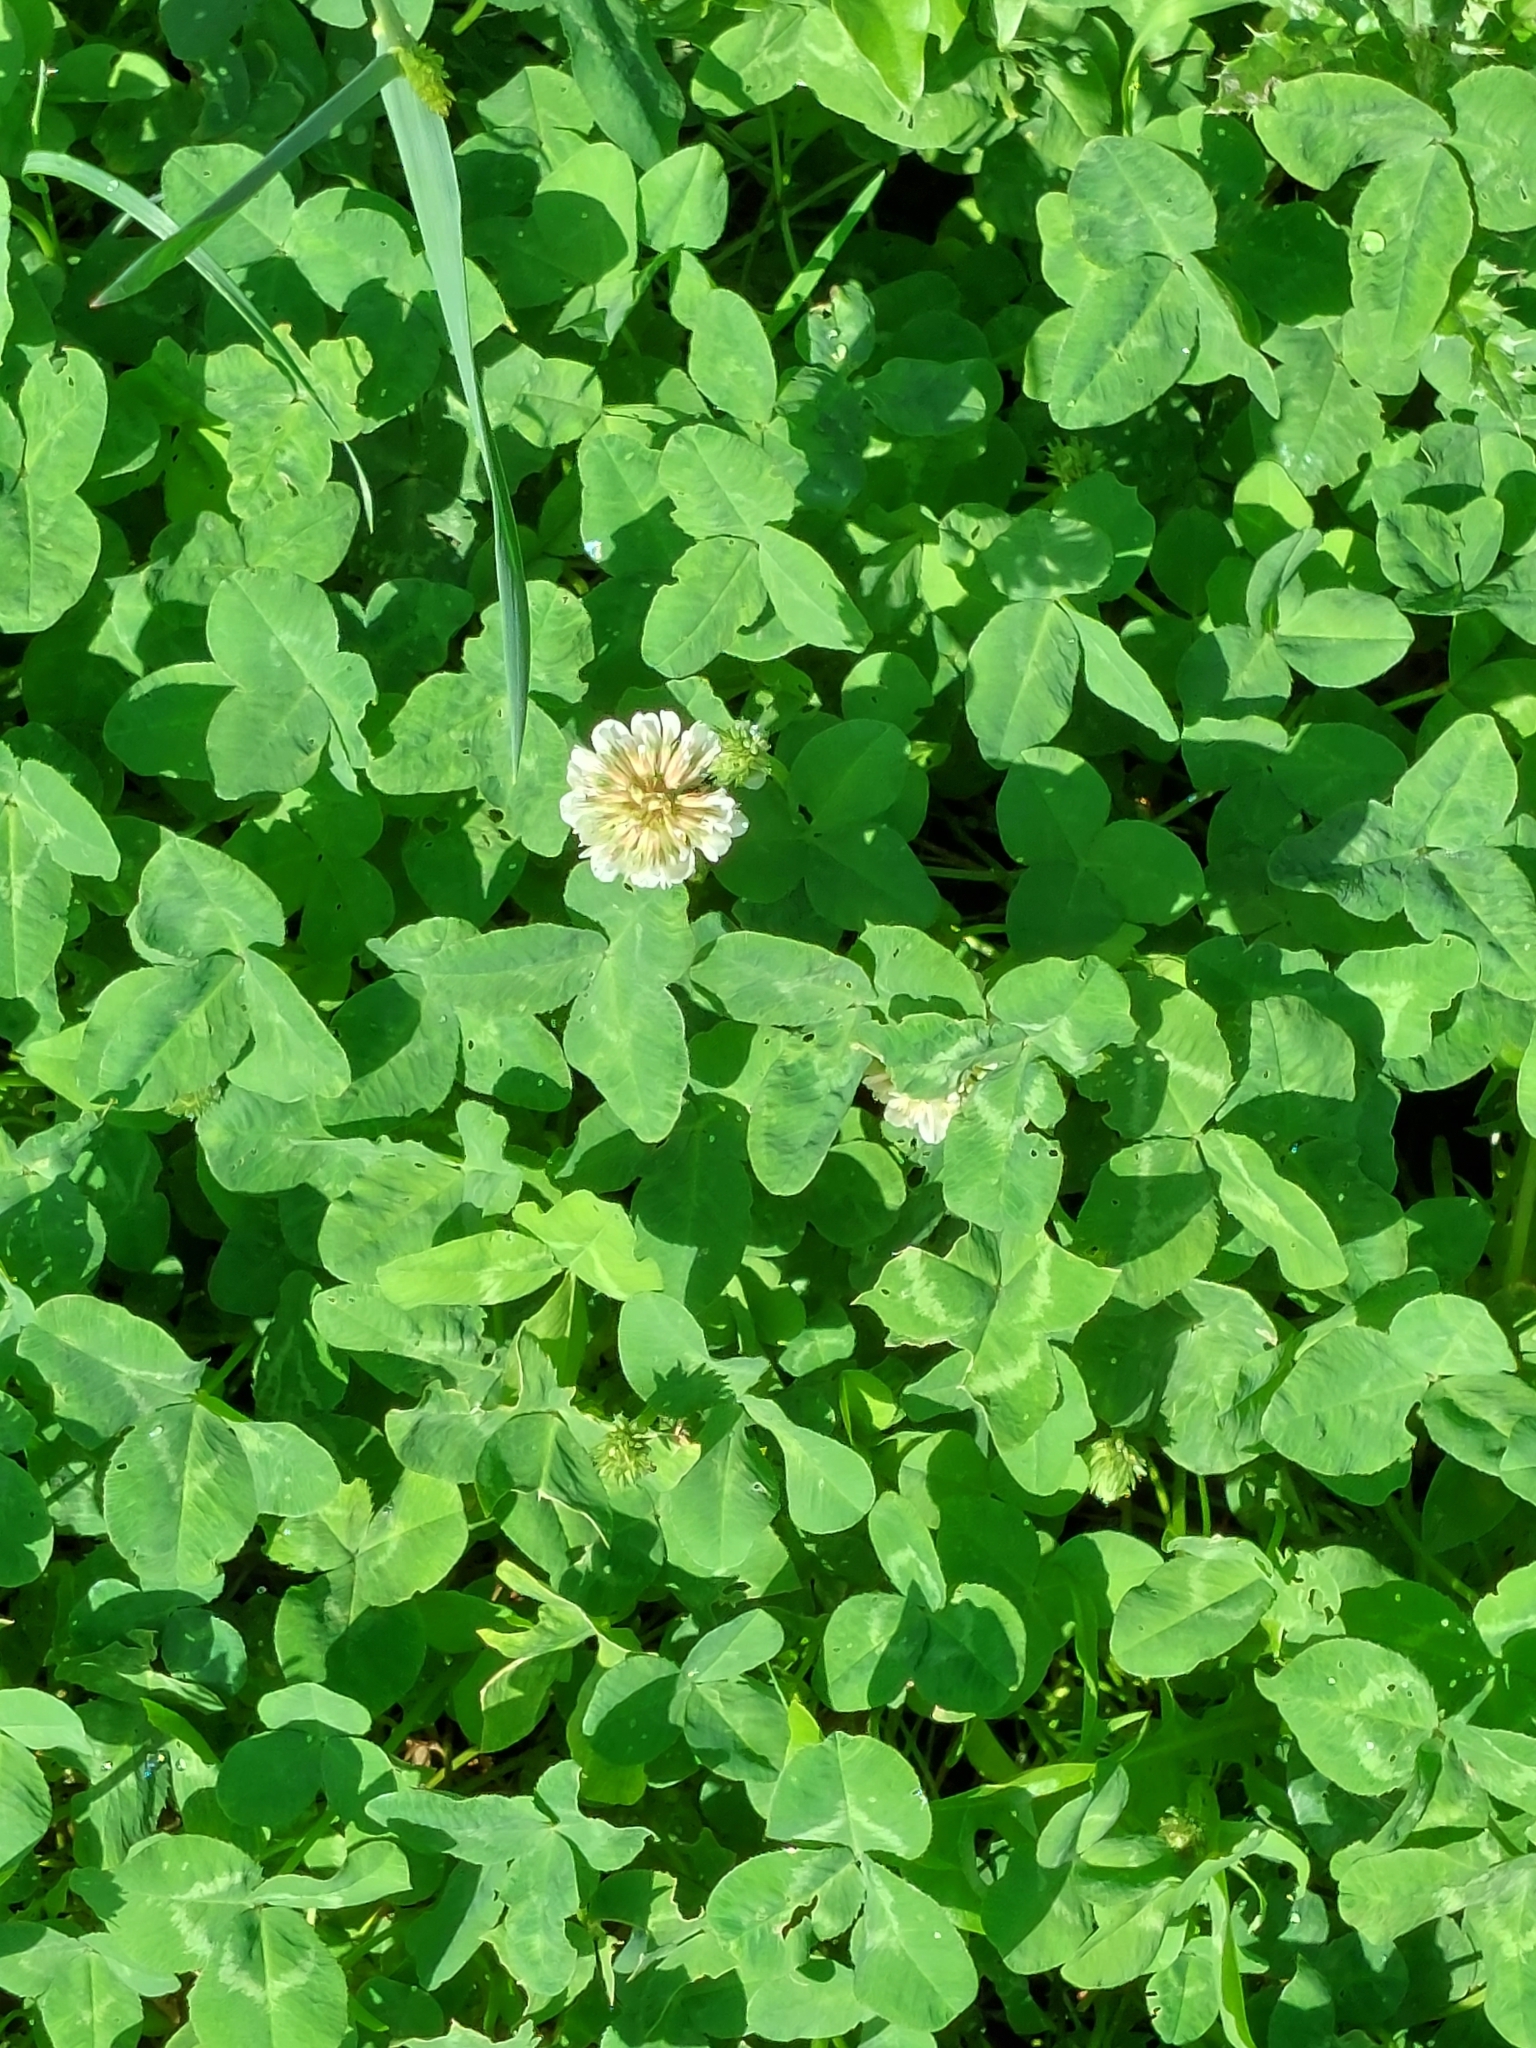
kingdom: Plantae
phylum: Tracheophyta
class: Magnoliopsida
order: Fabales
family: Fabaceae
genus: Trifolium
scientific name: Trifolium repens
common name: White clover
